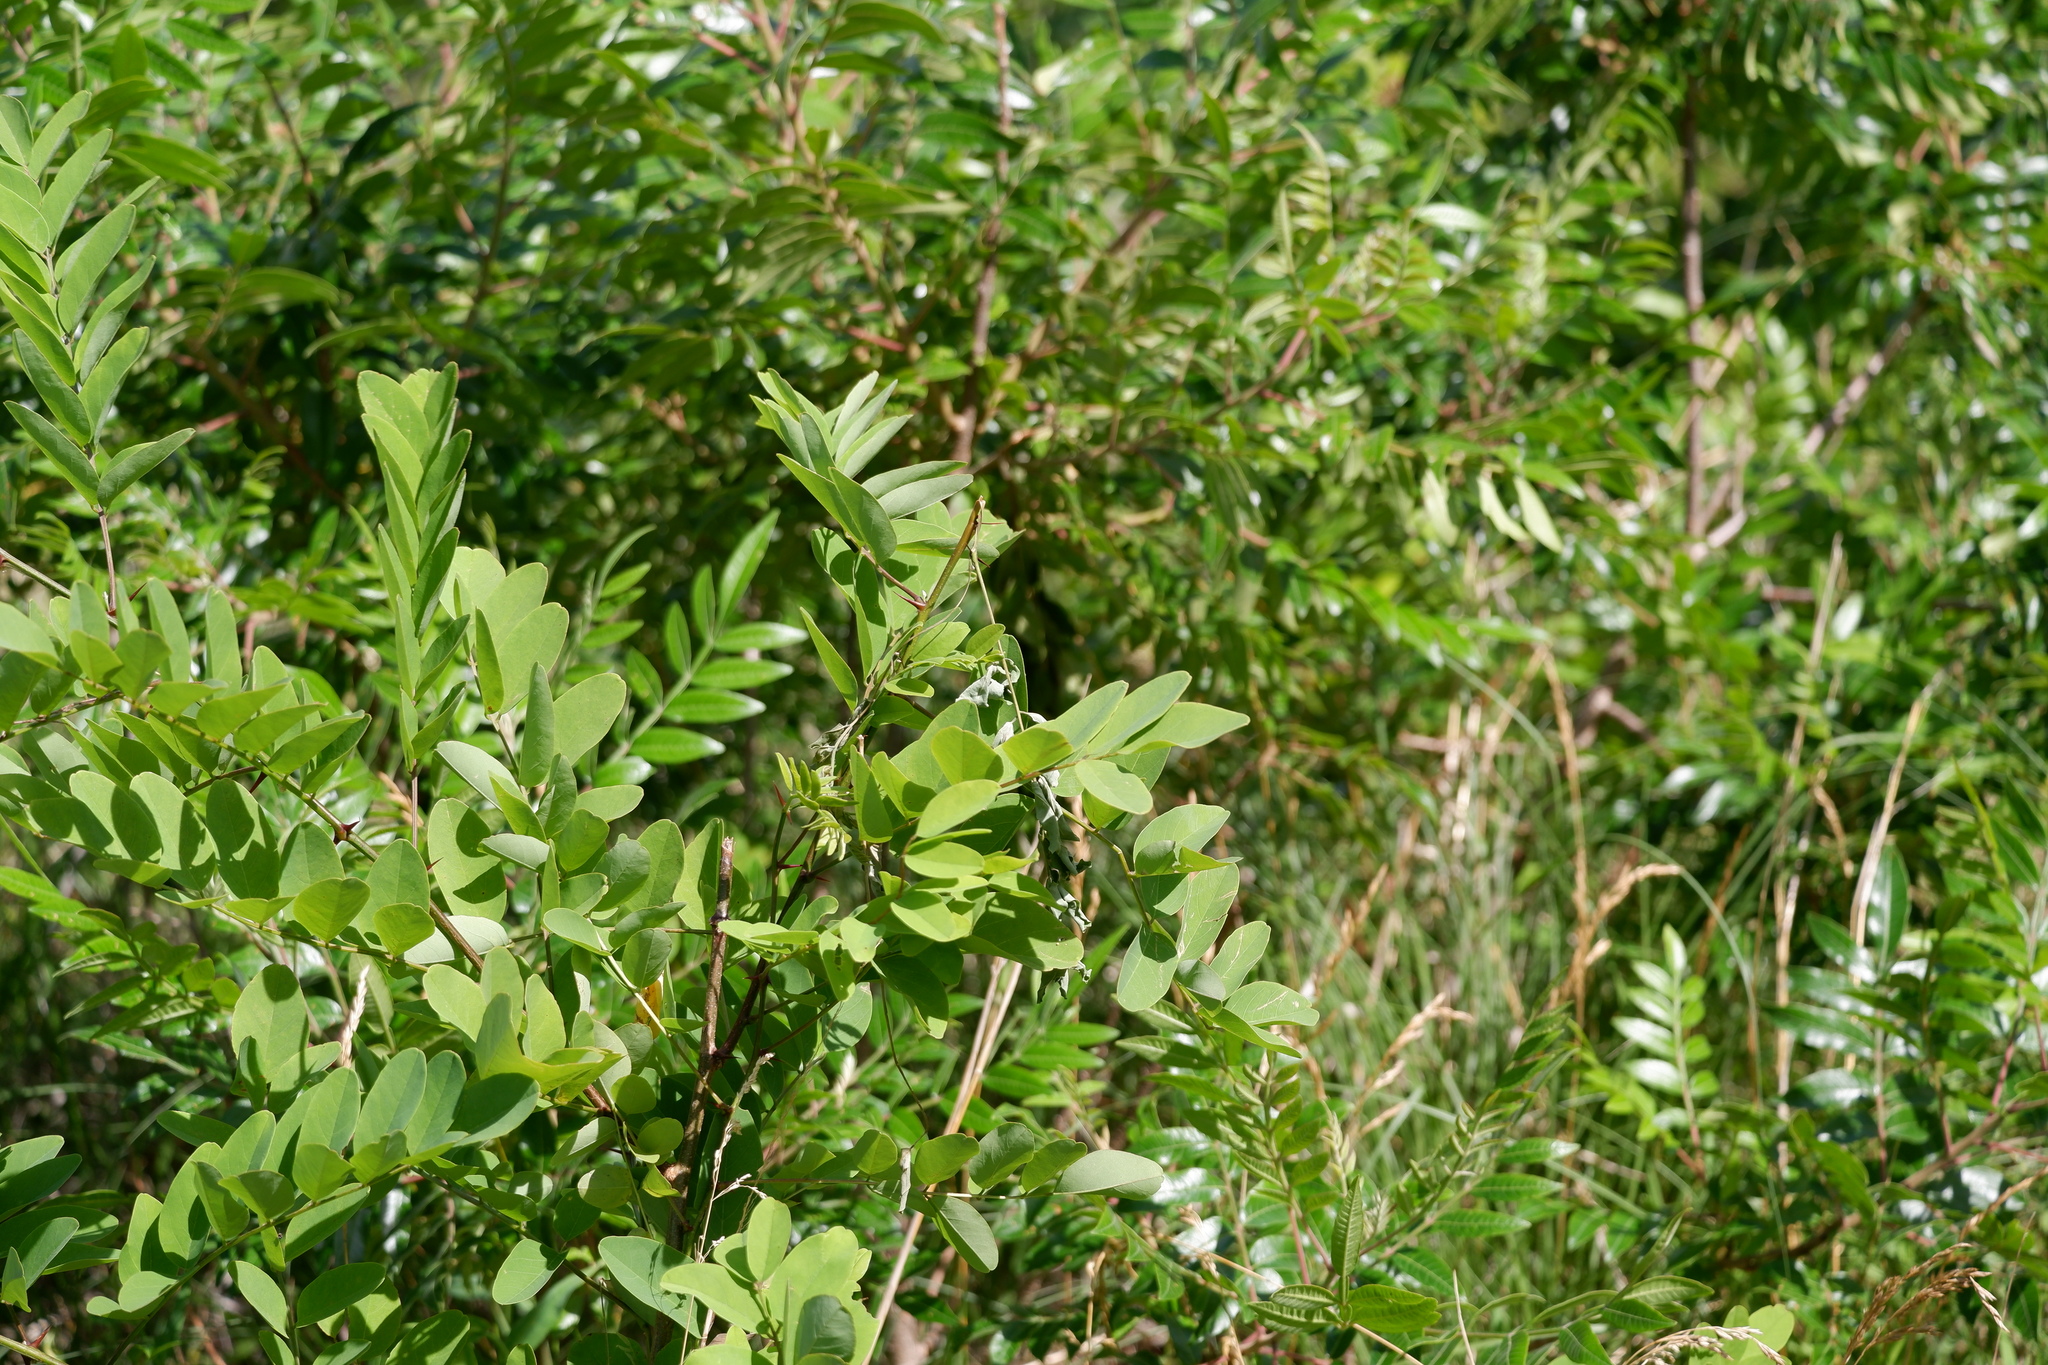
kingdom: Plantae
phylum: Tracheophyta
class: Magnoliopsida
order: Fabales
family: Fabaceae
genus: Robinia
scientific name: Robinia pseudoacacia
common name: Black locust
